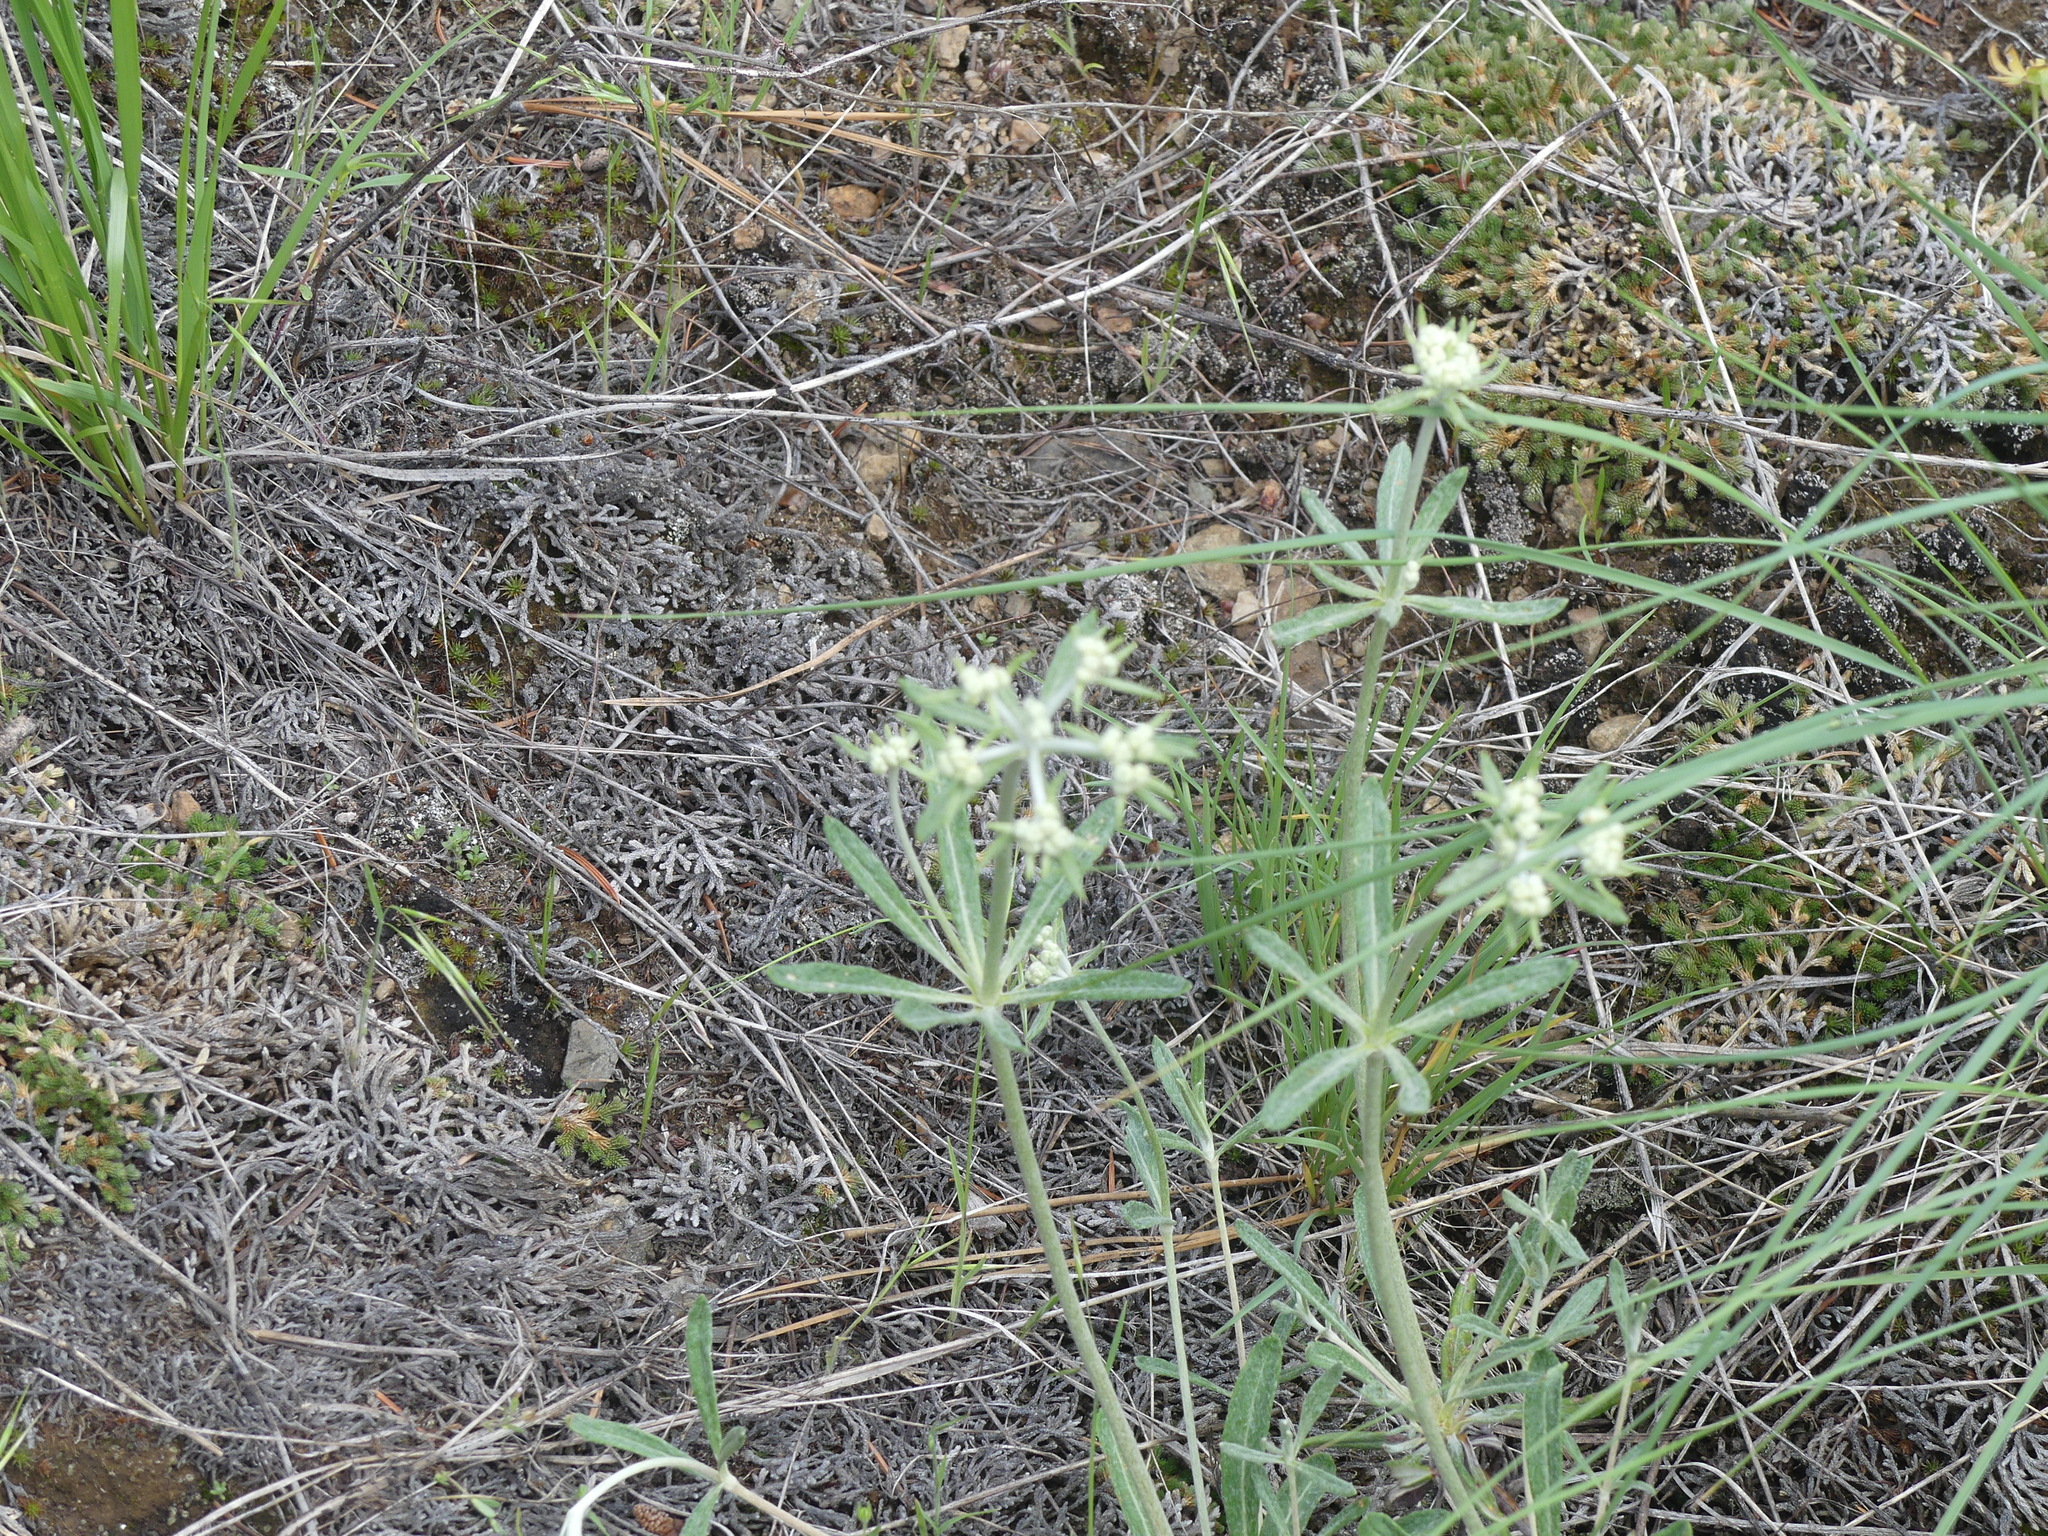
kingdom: Plantae
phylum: Tracheophyta
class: Magnoliopsida
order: Caryophyllales
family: Polygonaceae
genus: Eriogonum
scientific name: Eriogonum heracleoides
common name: Wyeth's buckwheat
